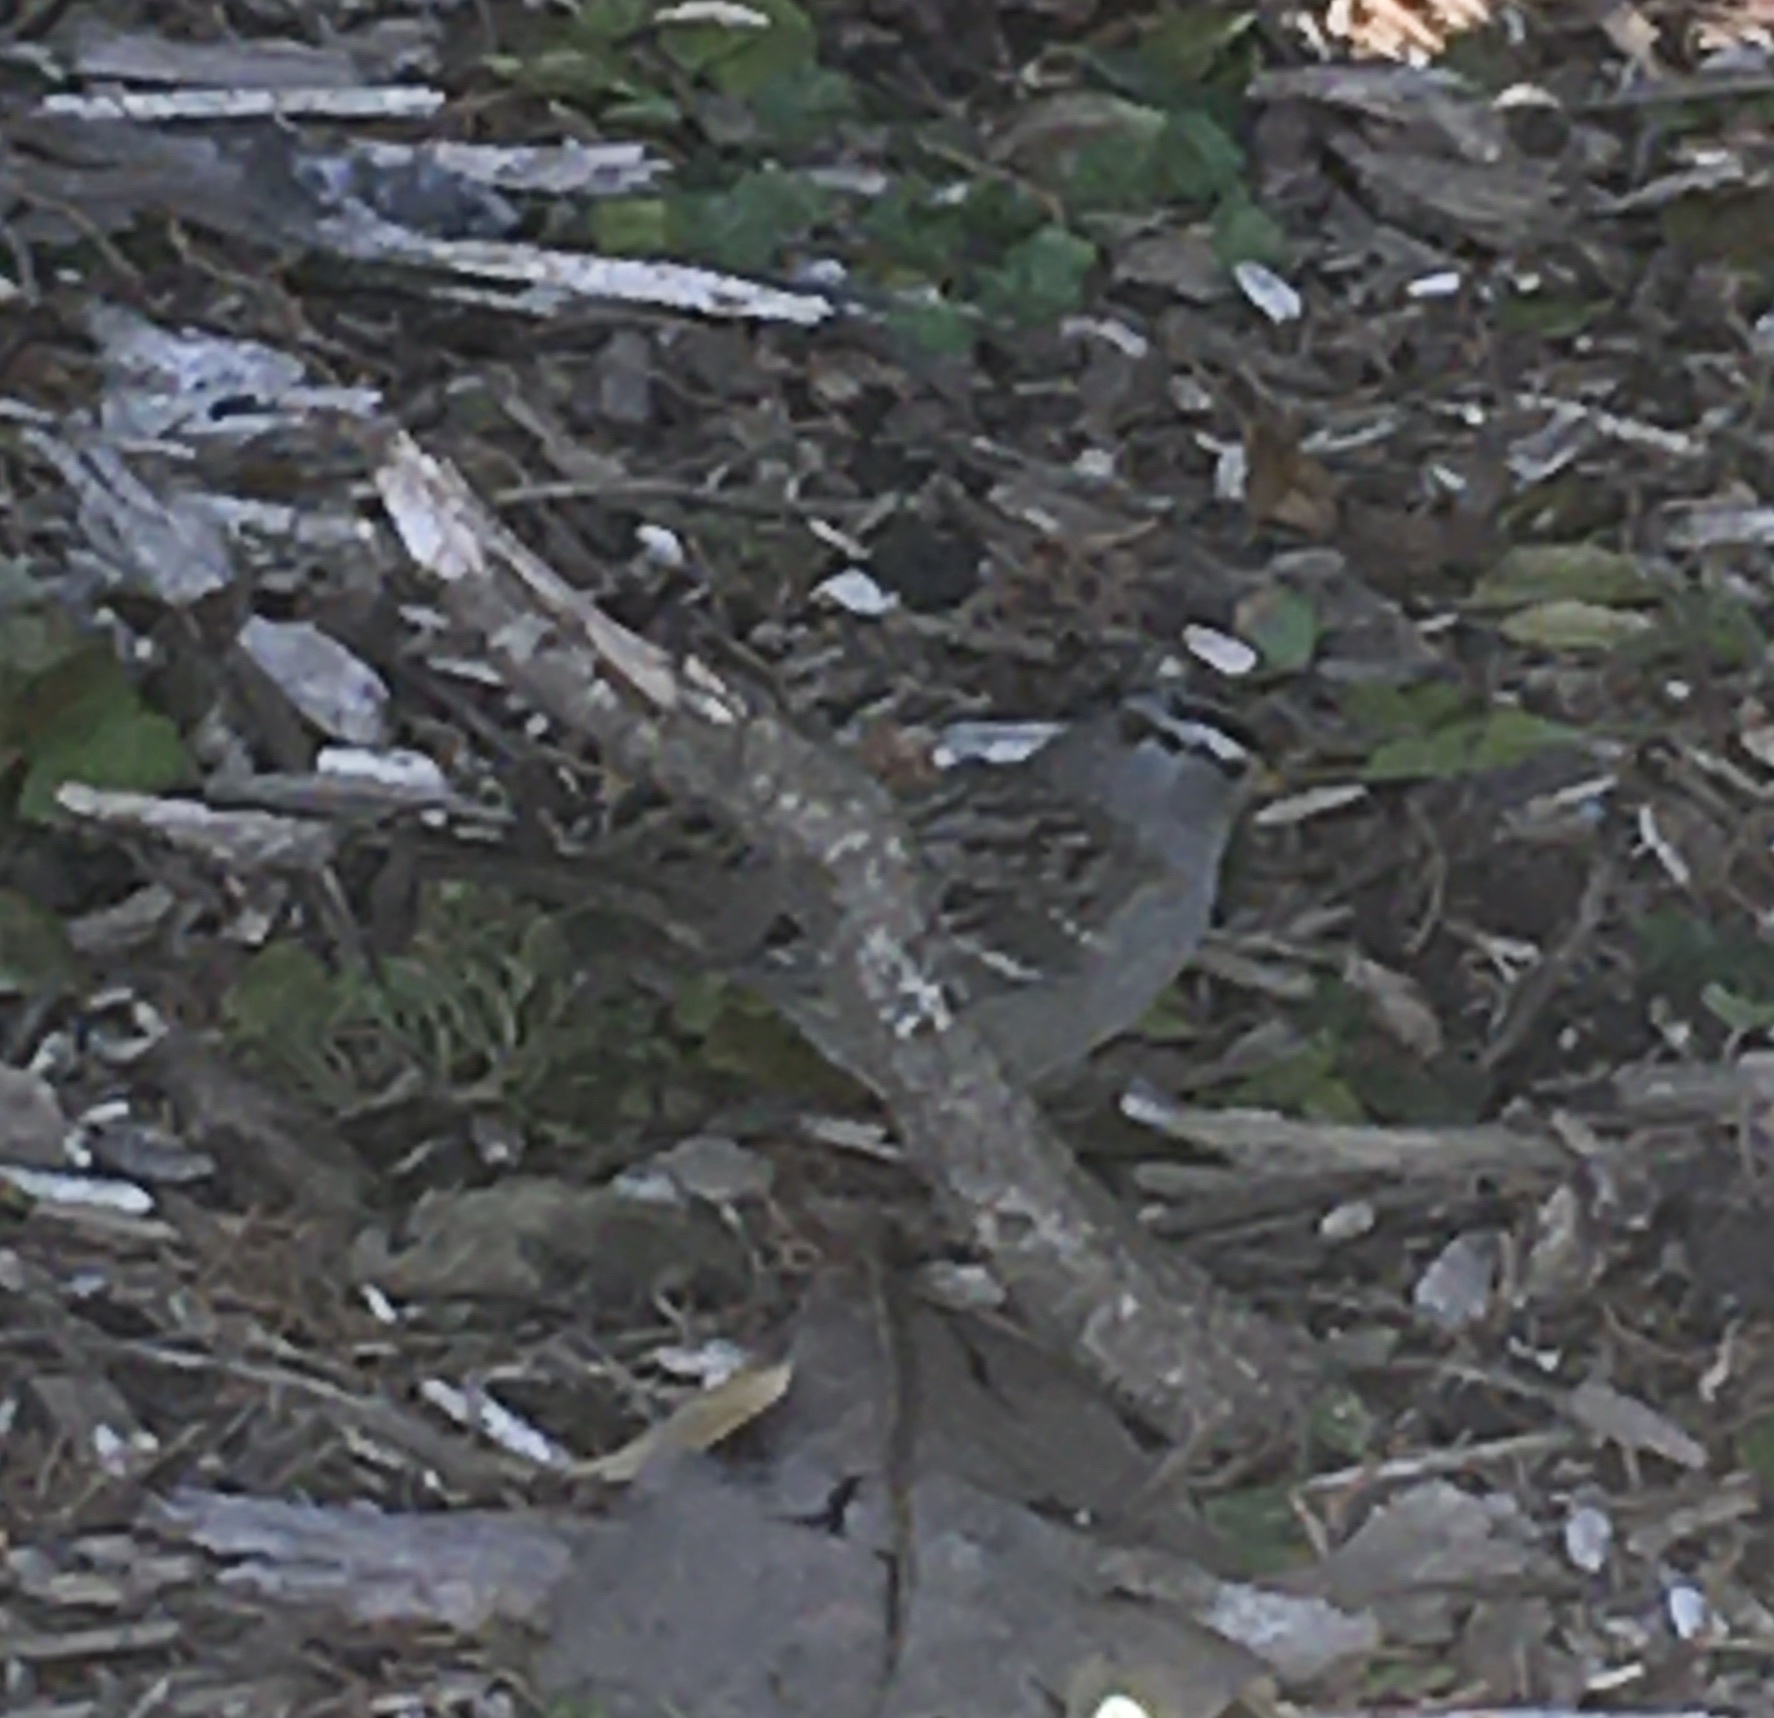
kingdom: Animalia
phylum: Chordata
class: Aves
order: Passeriformes
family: Passerellidae
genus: Zonotrichia
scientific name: Zonotrichia leucophrys
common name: White-crowned sparrow
